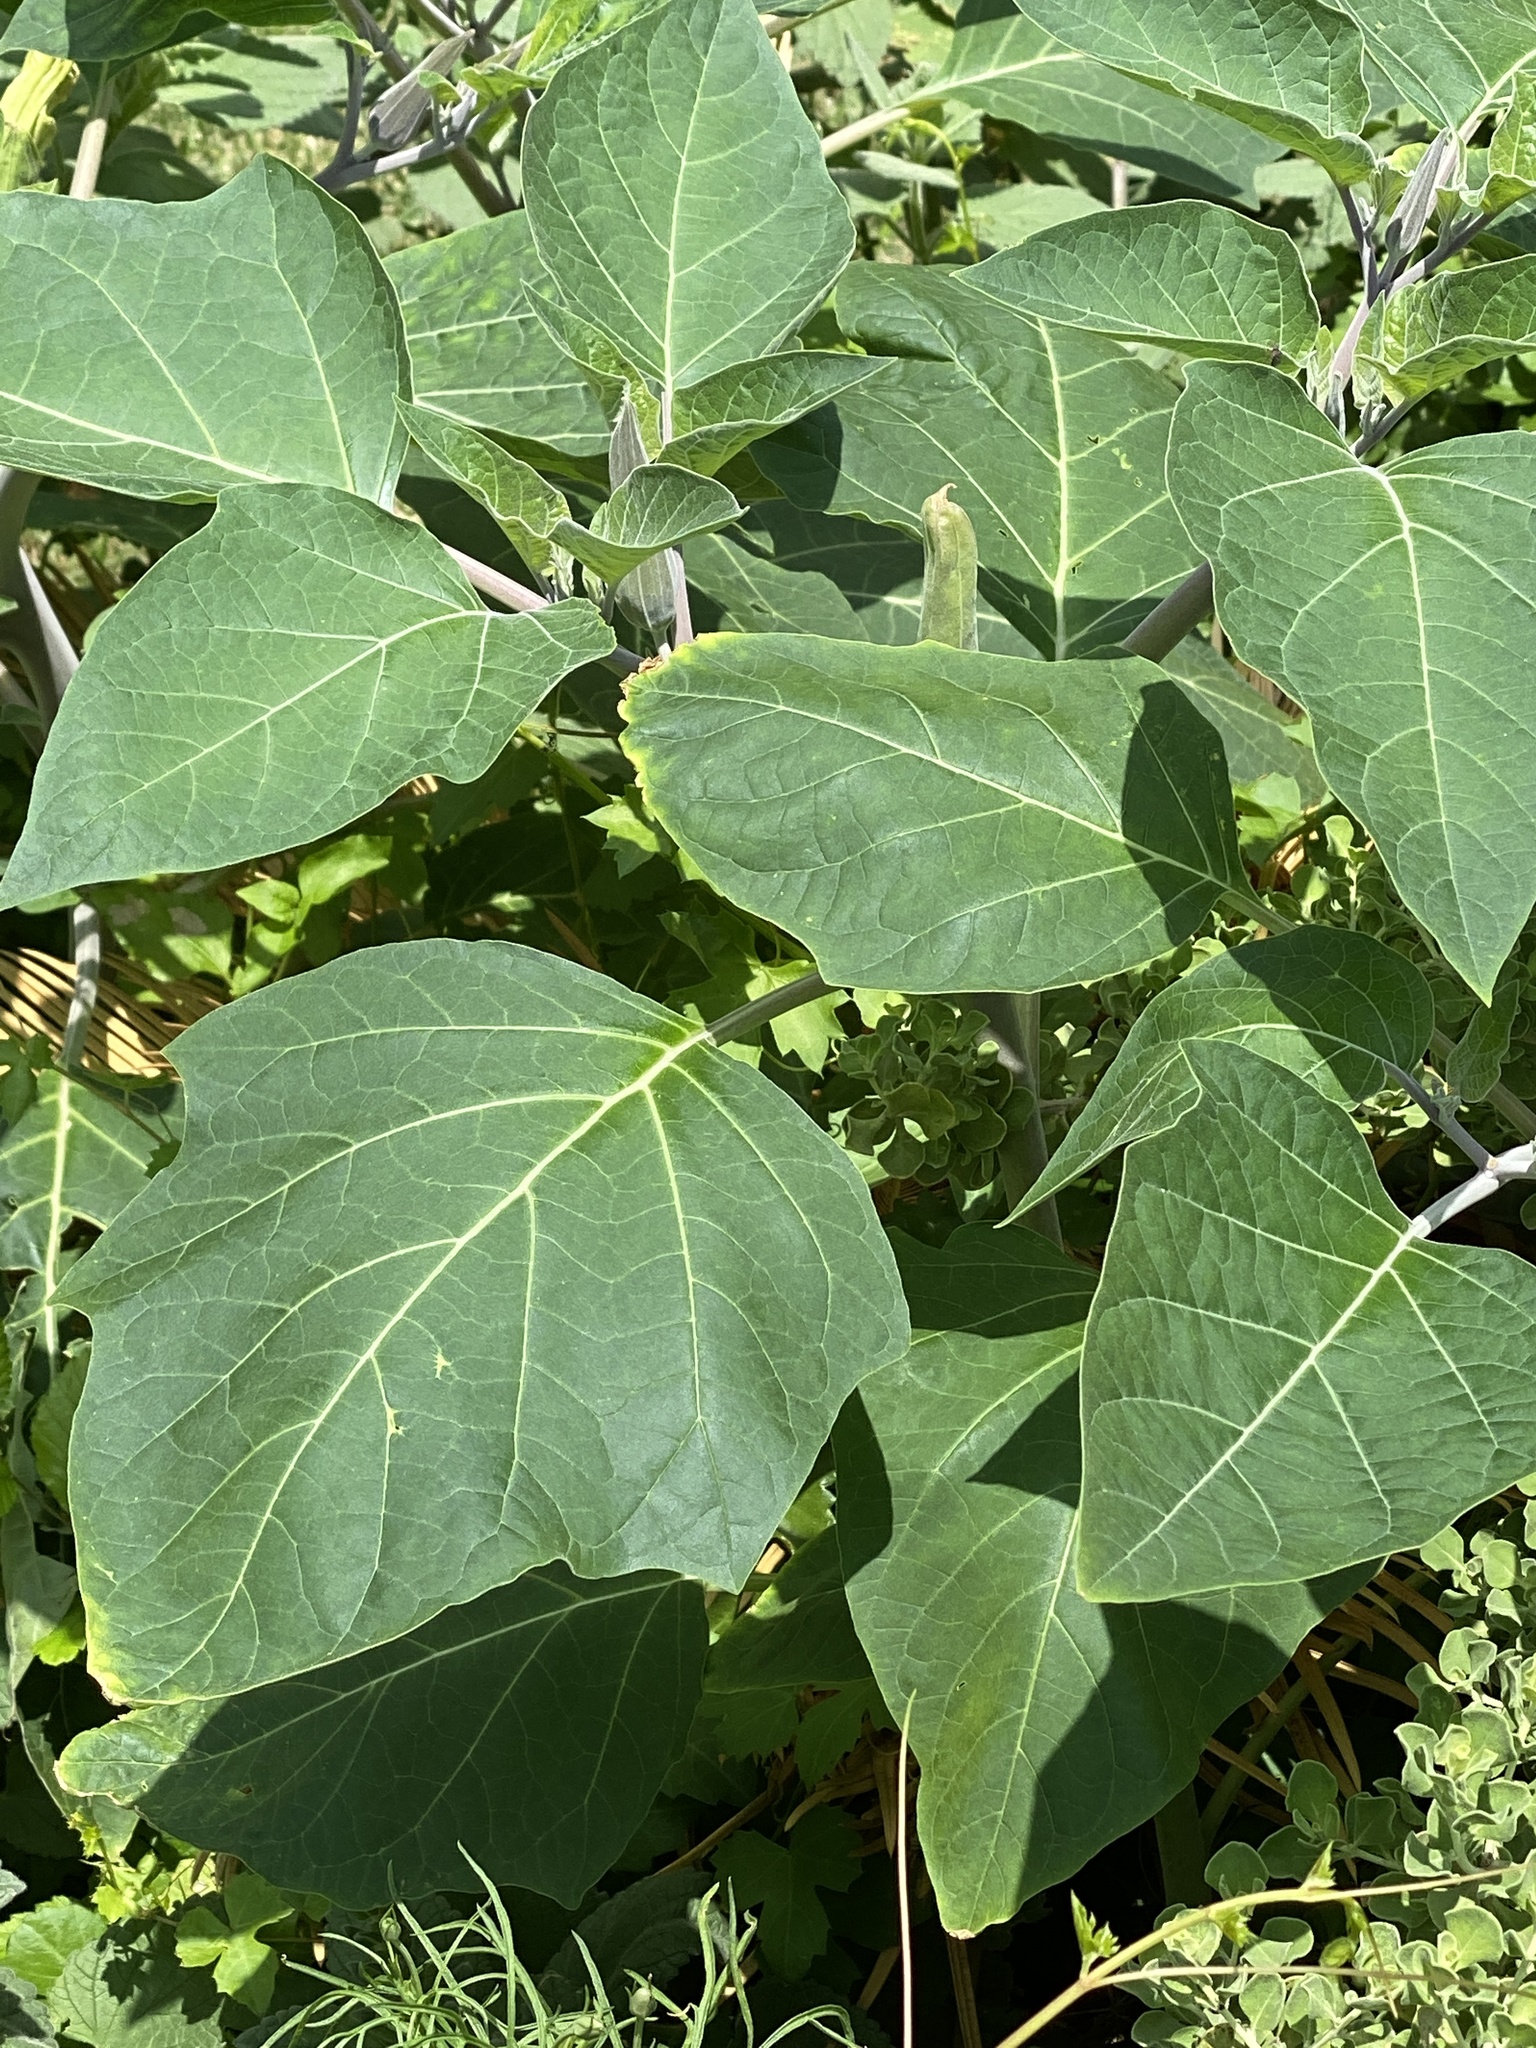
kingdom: Plantae
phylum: Tracheophyta
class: Magnoliopsida
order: Solanales
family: Solanaceae
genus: Datura
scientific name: Datura wrightii
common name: Sacred thorn-apple
